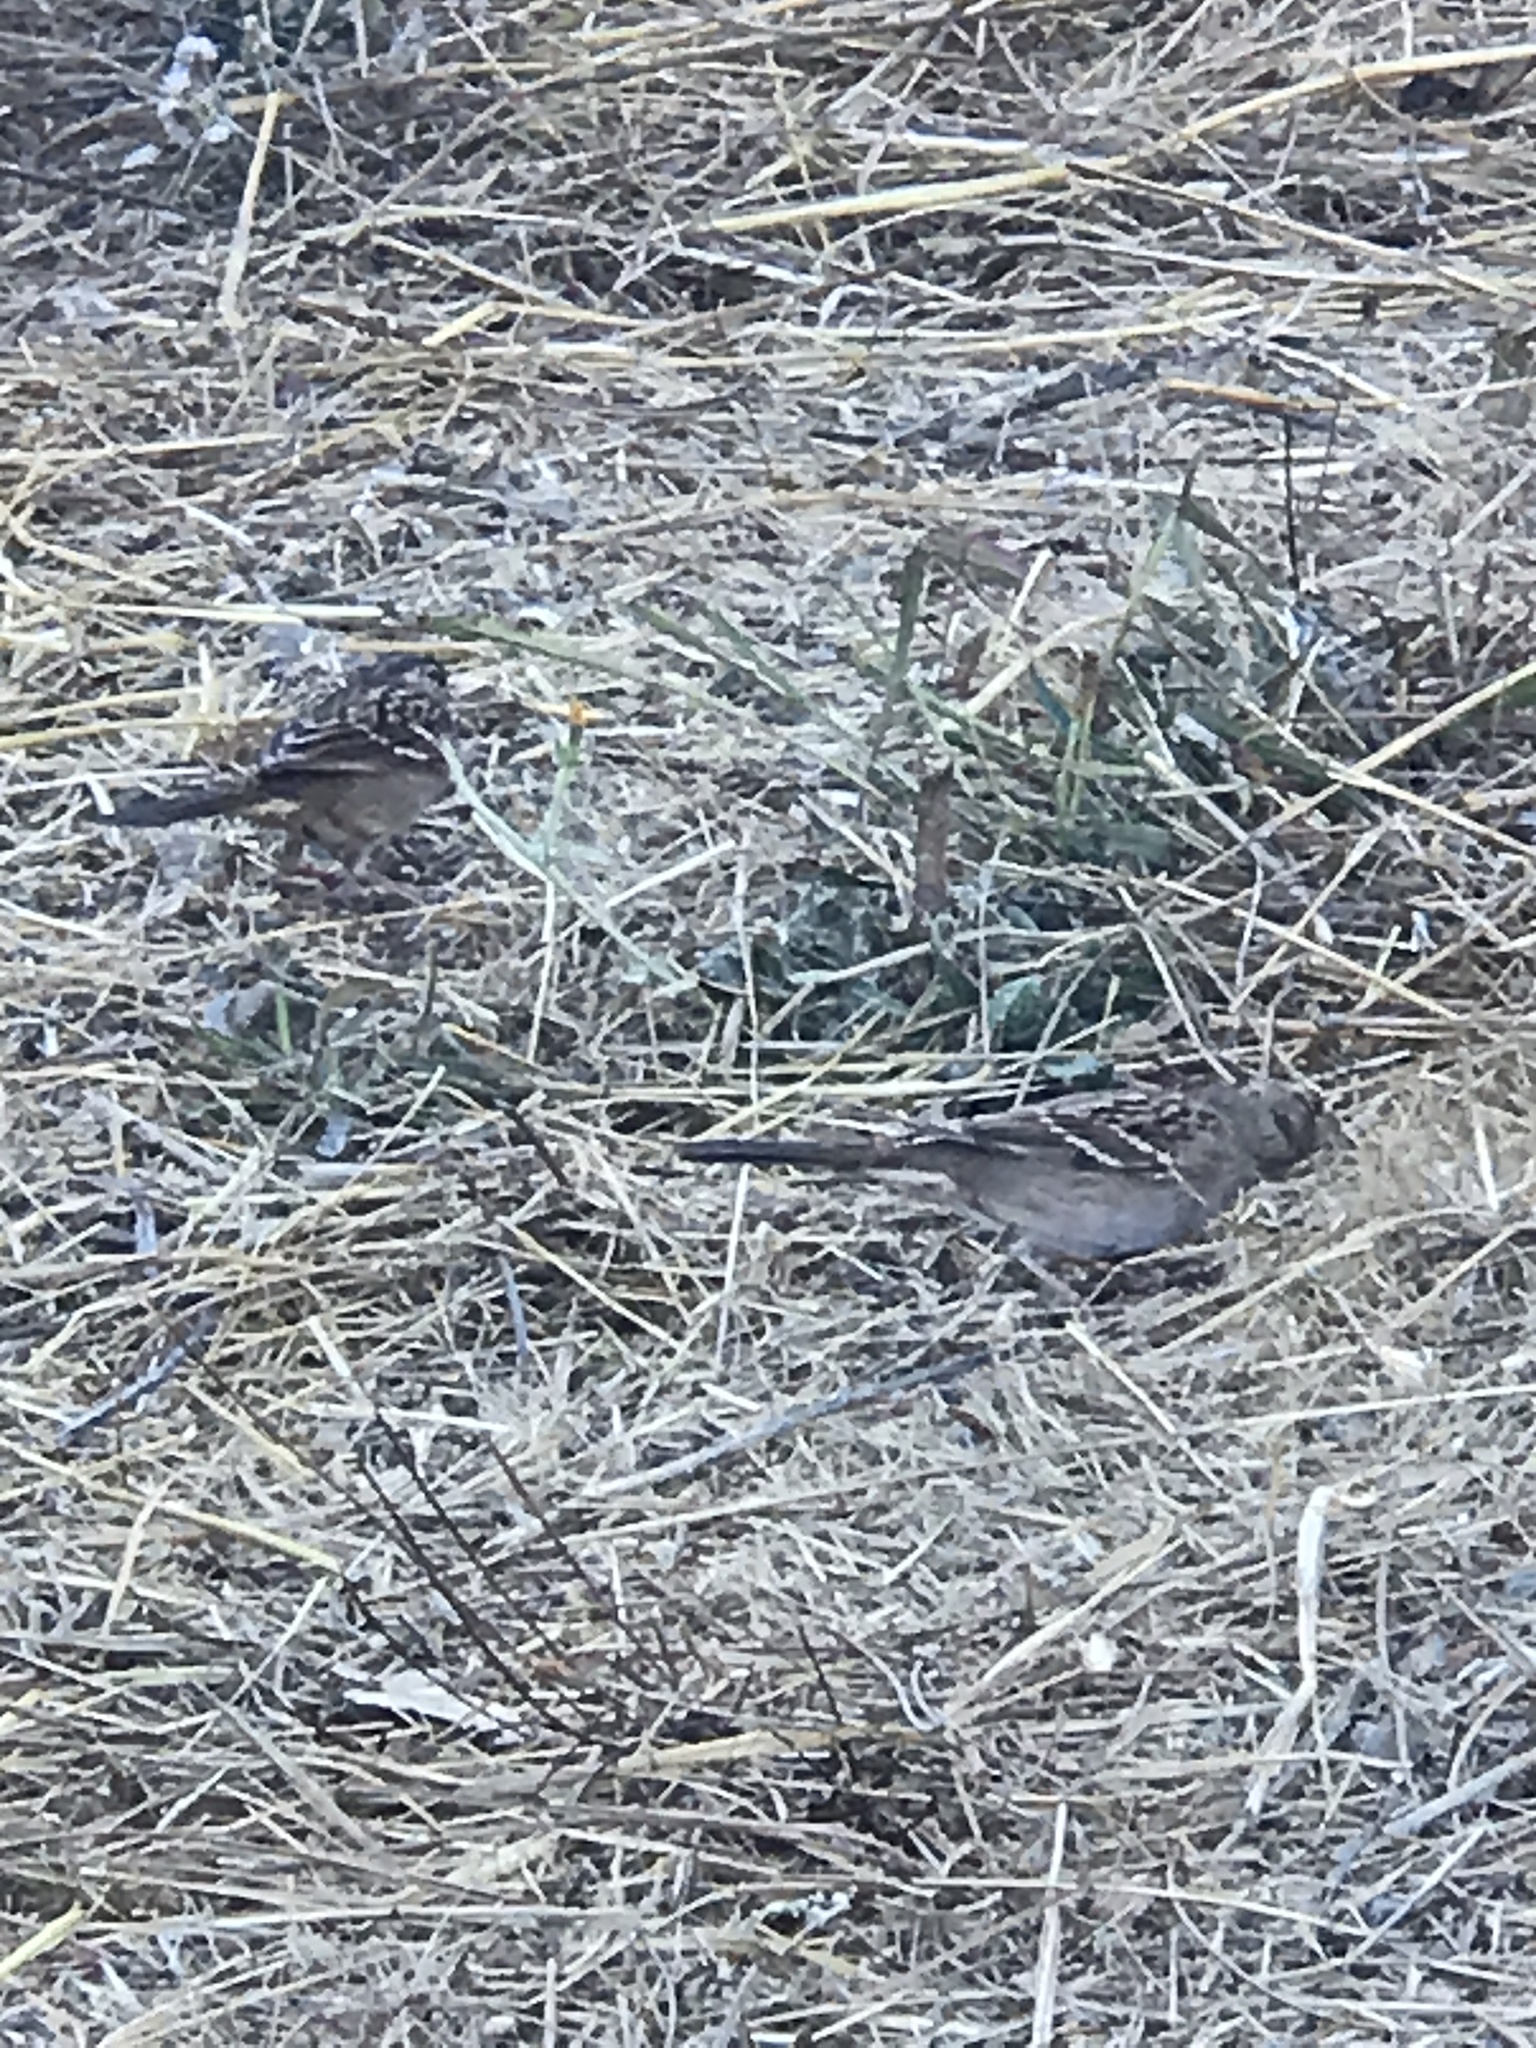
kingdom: Animalia
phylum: Chordata
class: Aves
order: Passeriformes
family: Passerellidae
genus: Zonotrichia
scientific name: Zonotrichia atricapilla
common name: Golden-crowned sparrow
